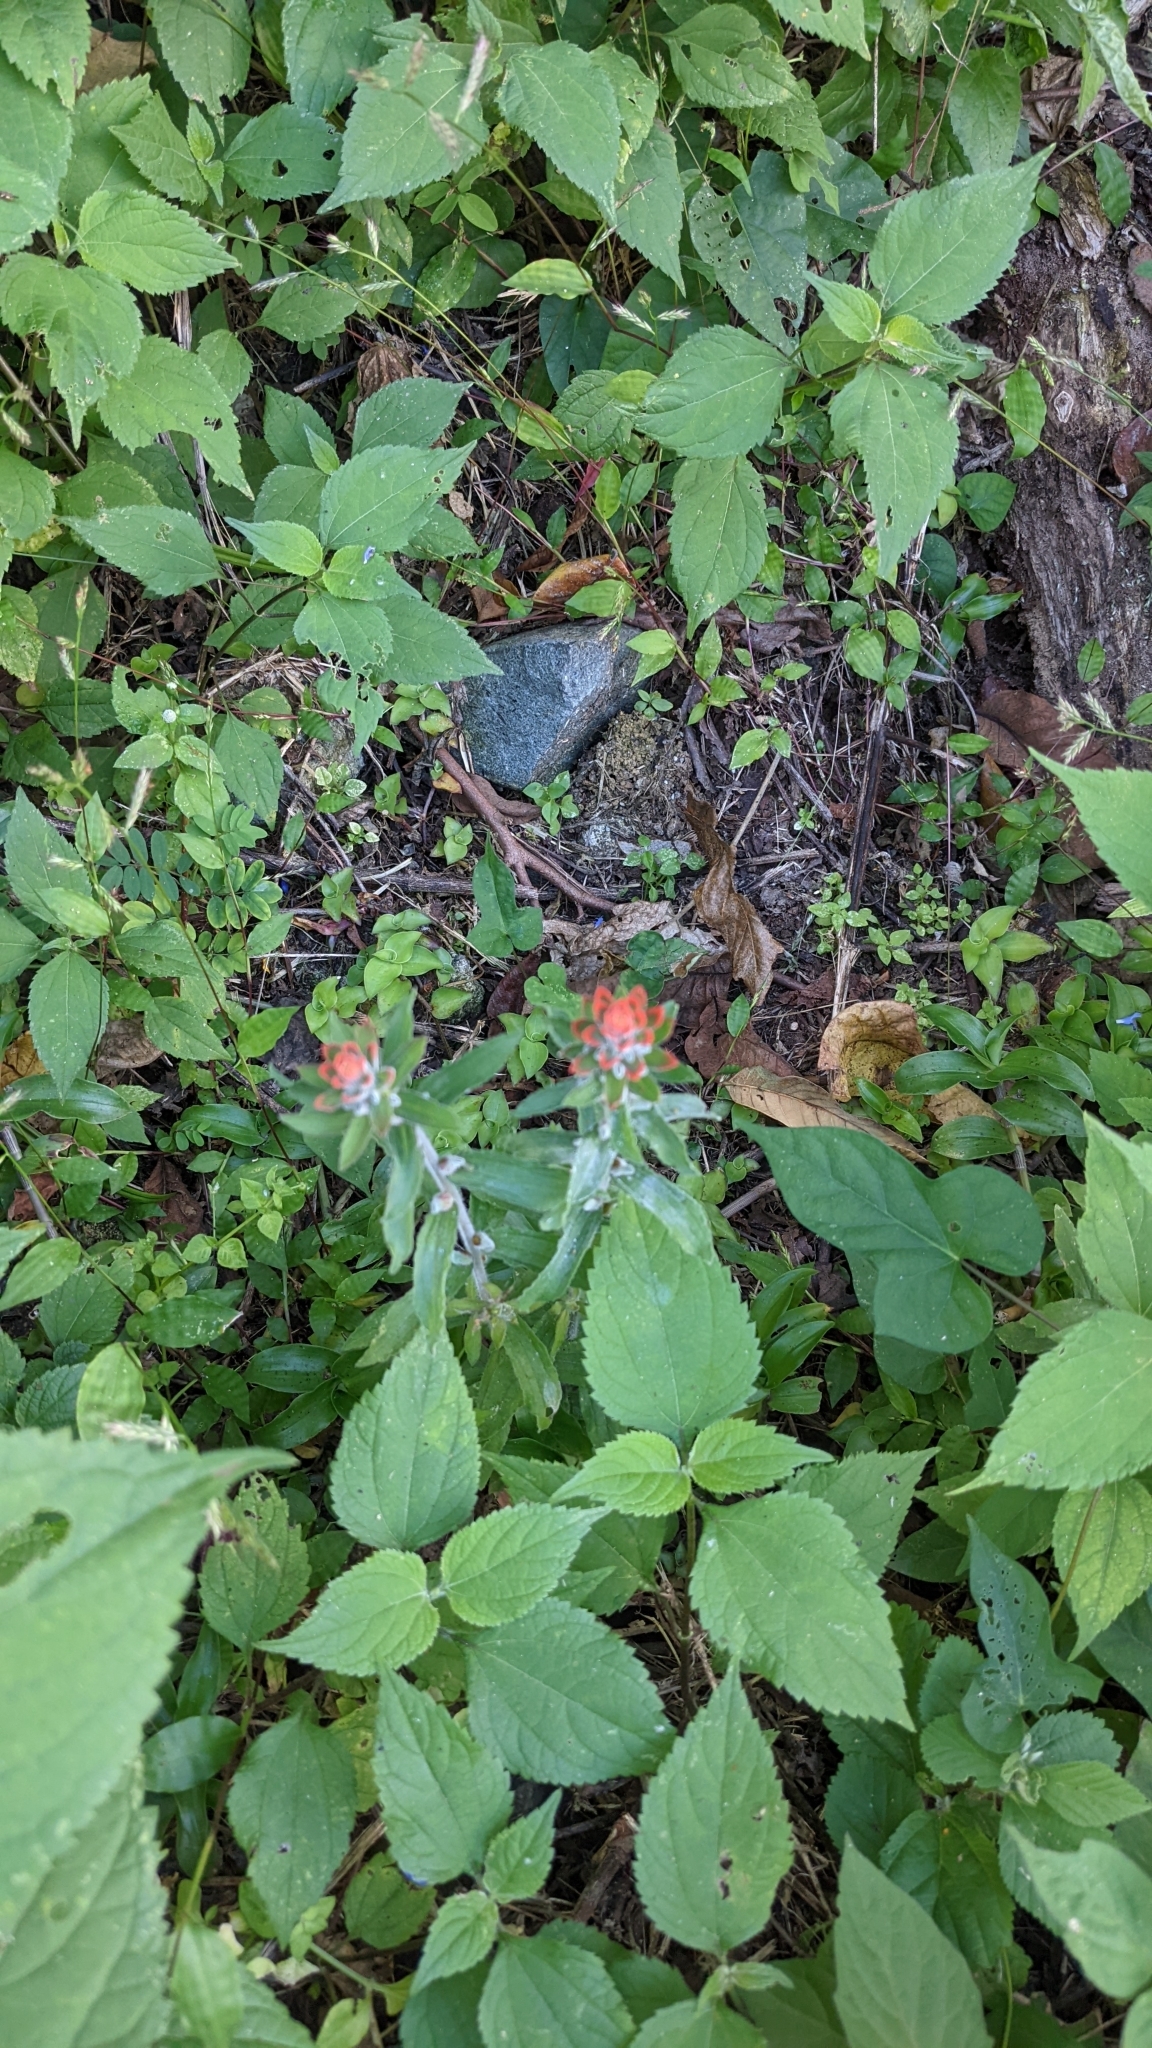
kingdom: Plantae
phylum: Tracheophyta
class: Magnoliopsida
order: Lamiales
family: Orobanchaceae
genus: Castilleja
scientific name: Castilleja arvensis
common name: Indian paintbrush
